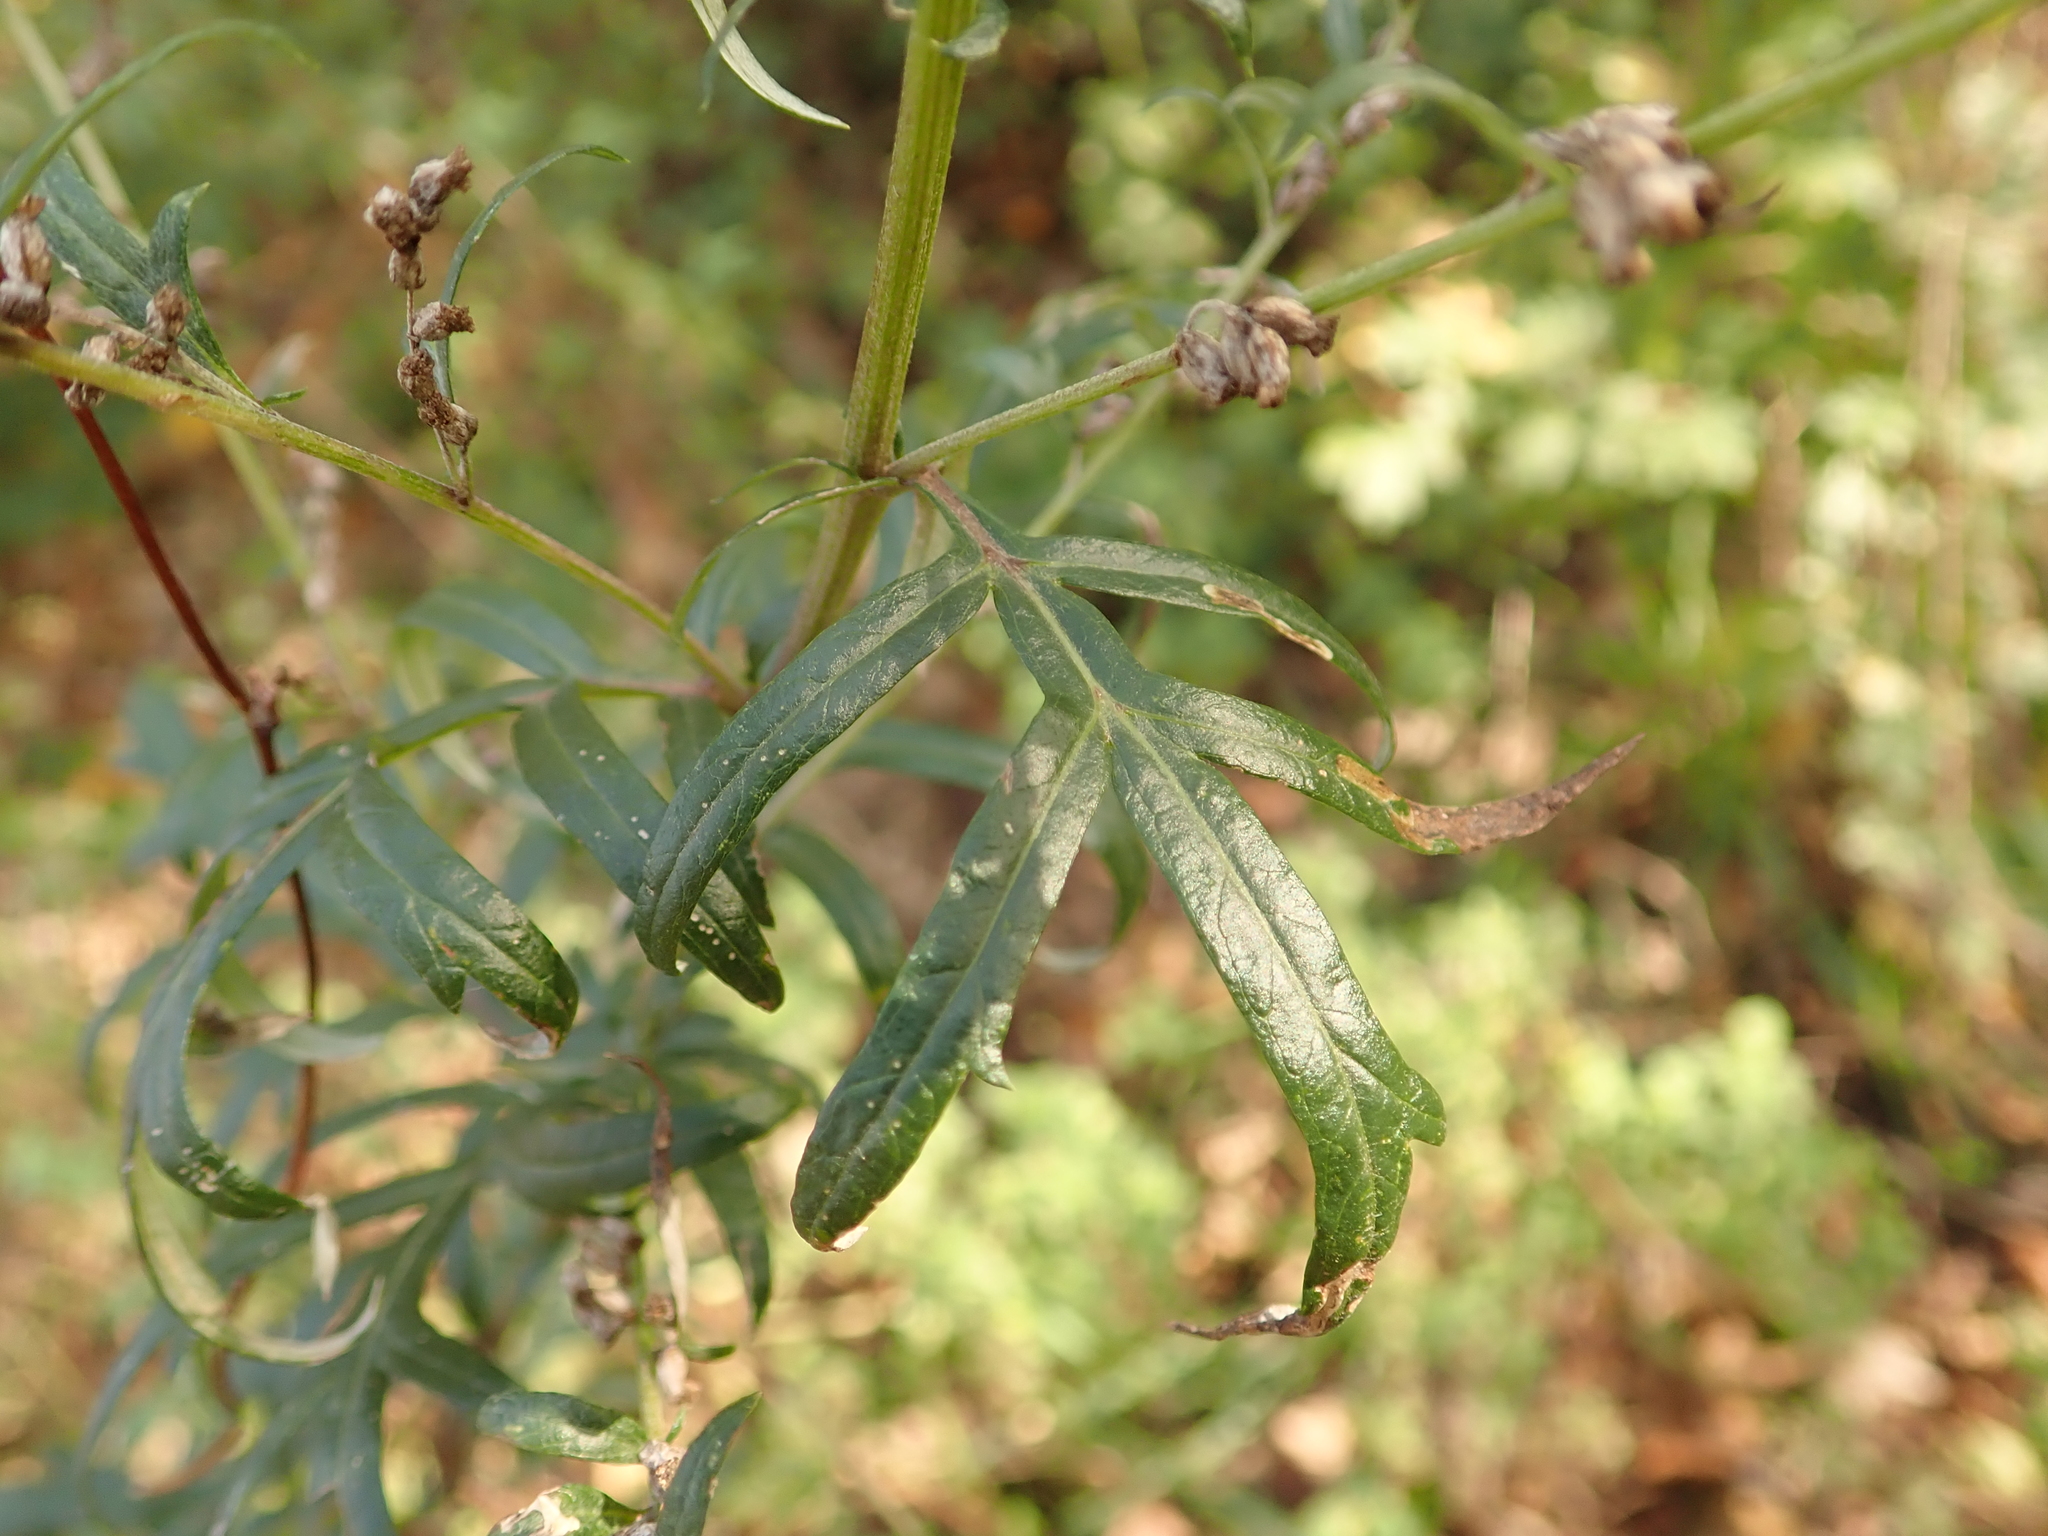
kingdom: Plantae
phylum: Tracheophyta
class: Magnoliopsida
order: Asterales
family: Asteraceae
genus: Artemisia
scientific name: Artemisia vulgaris
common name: Mugwort
